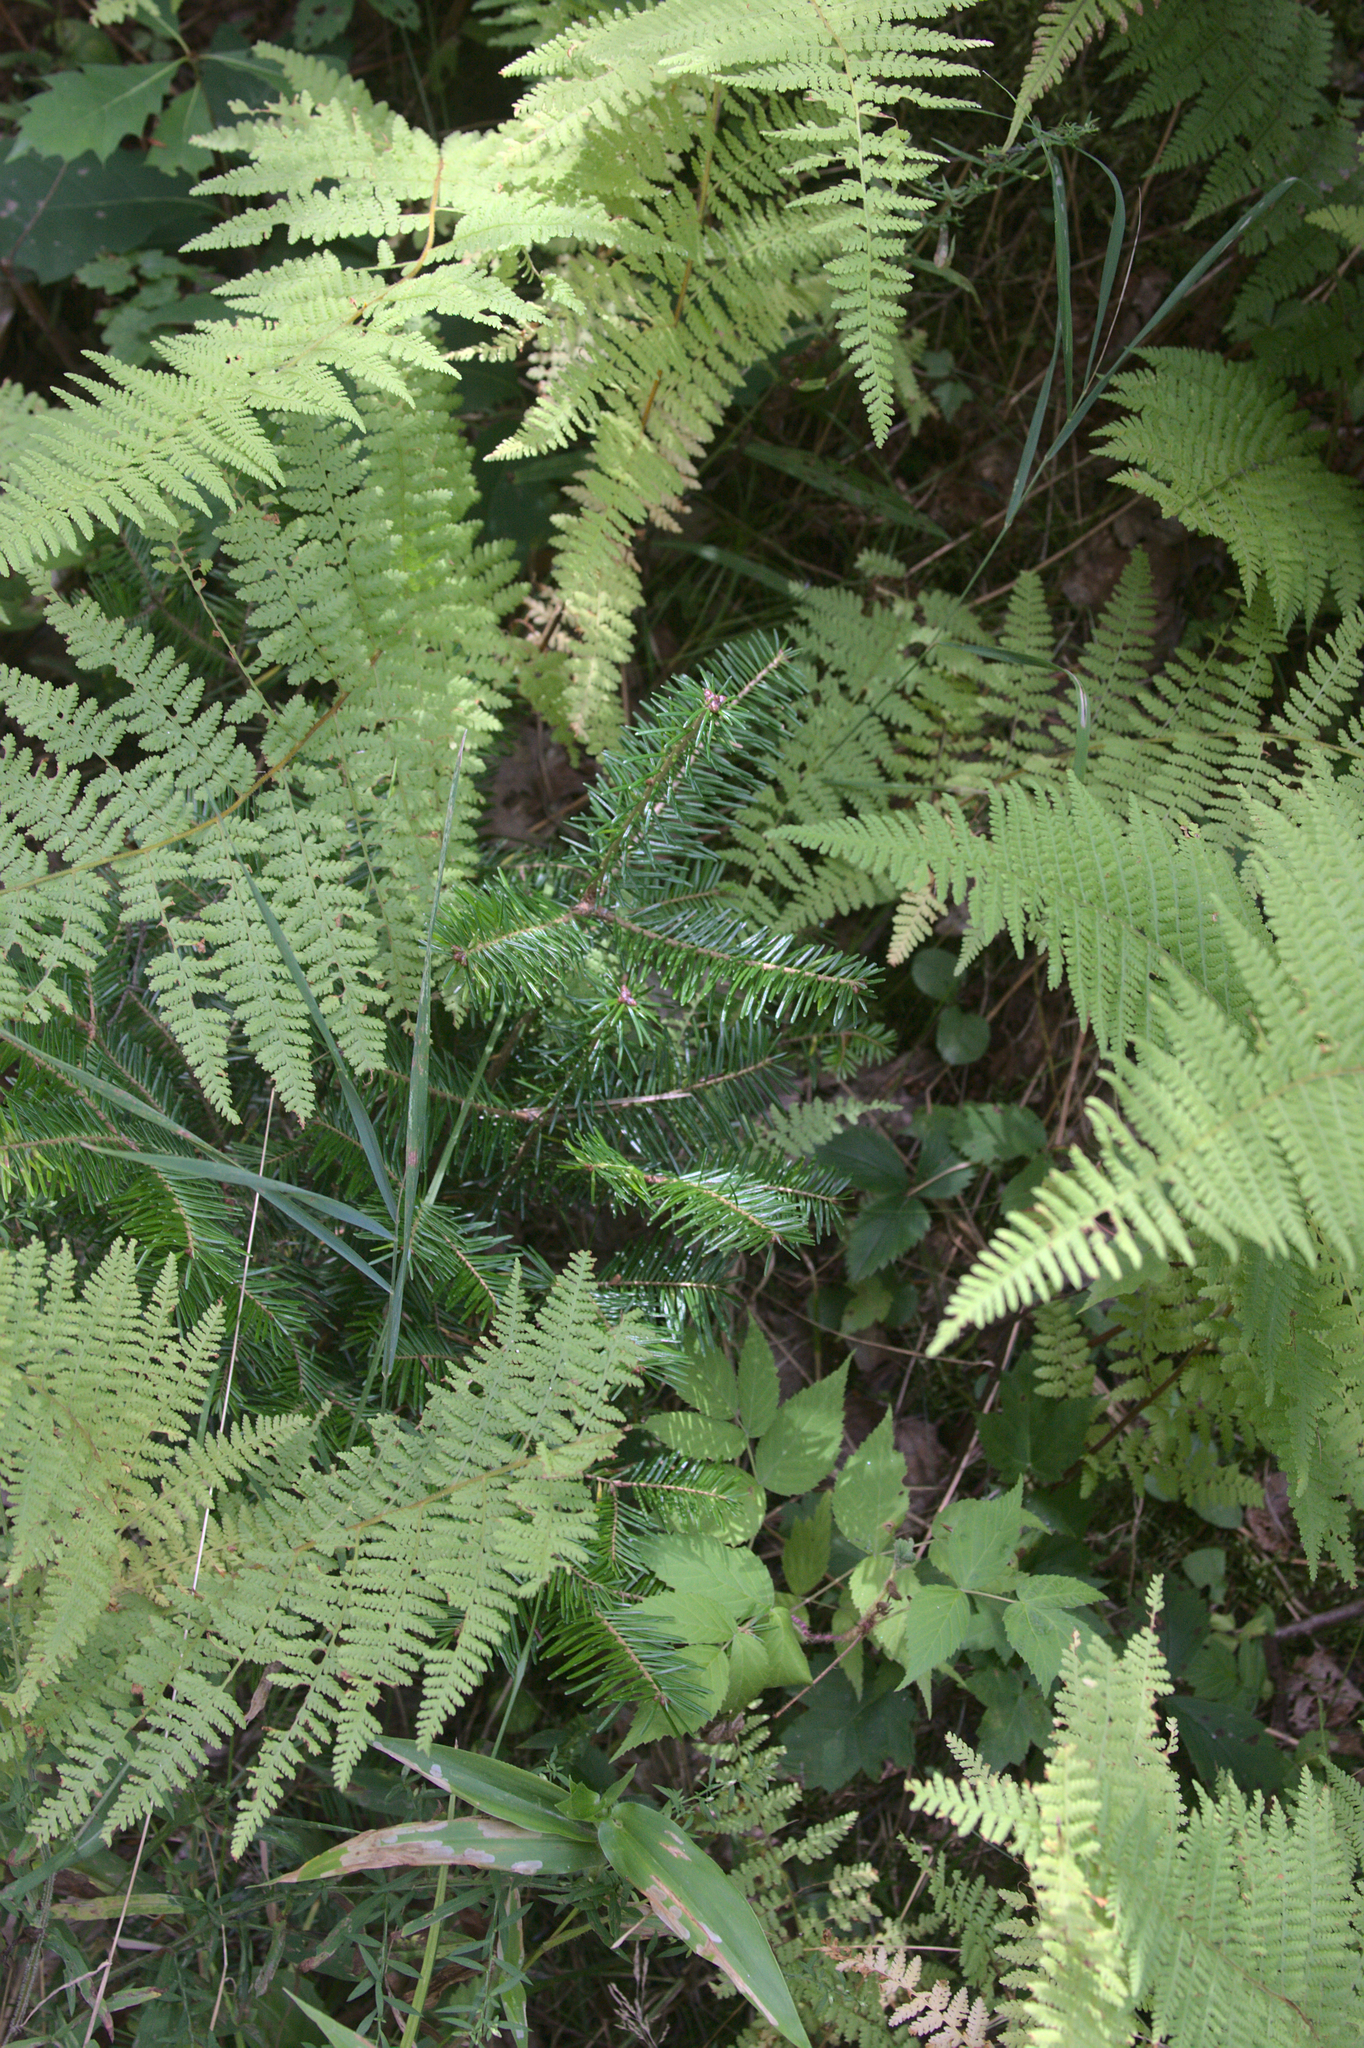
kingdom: Plantae
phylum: Tracheophyta
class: Pinopsida
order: Pinales
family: Pinaceae
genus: Abies
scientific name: Abies balsamea
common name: Balsam fir
